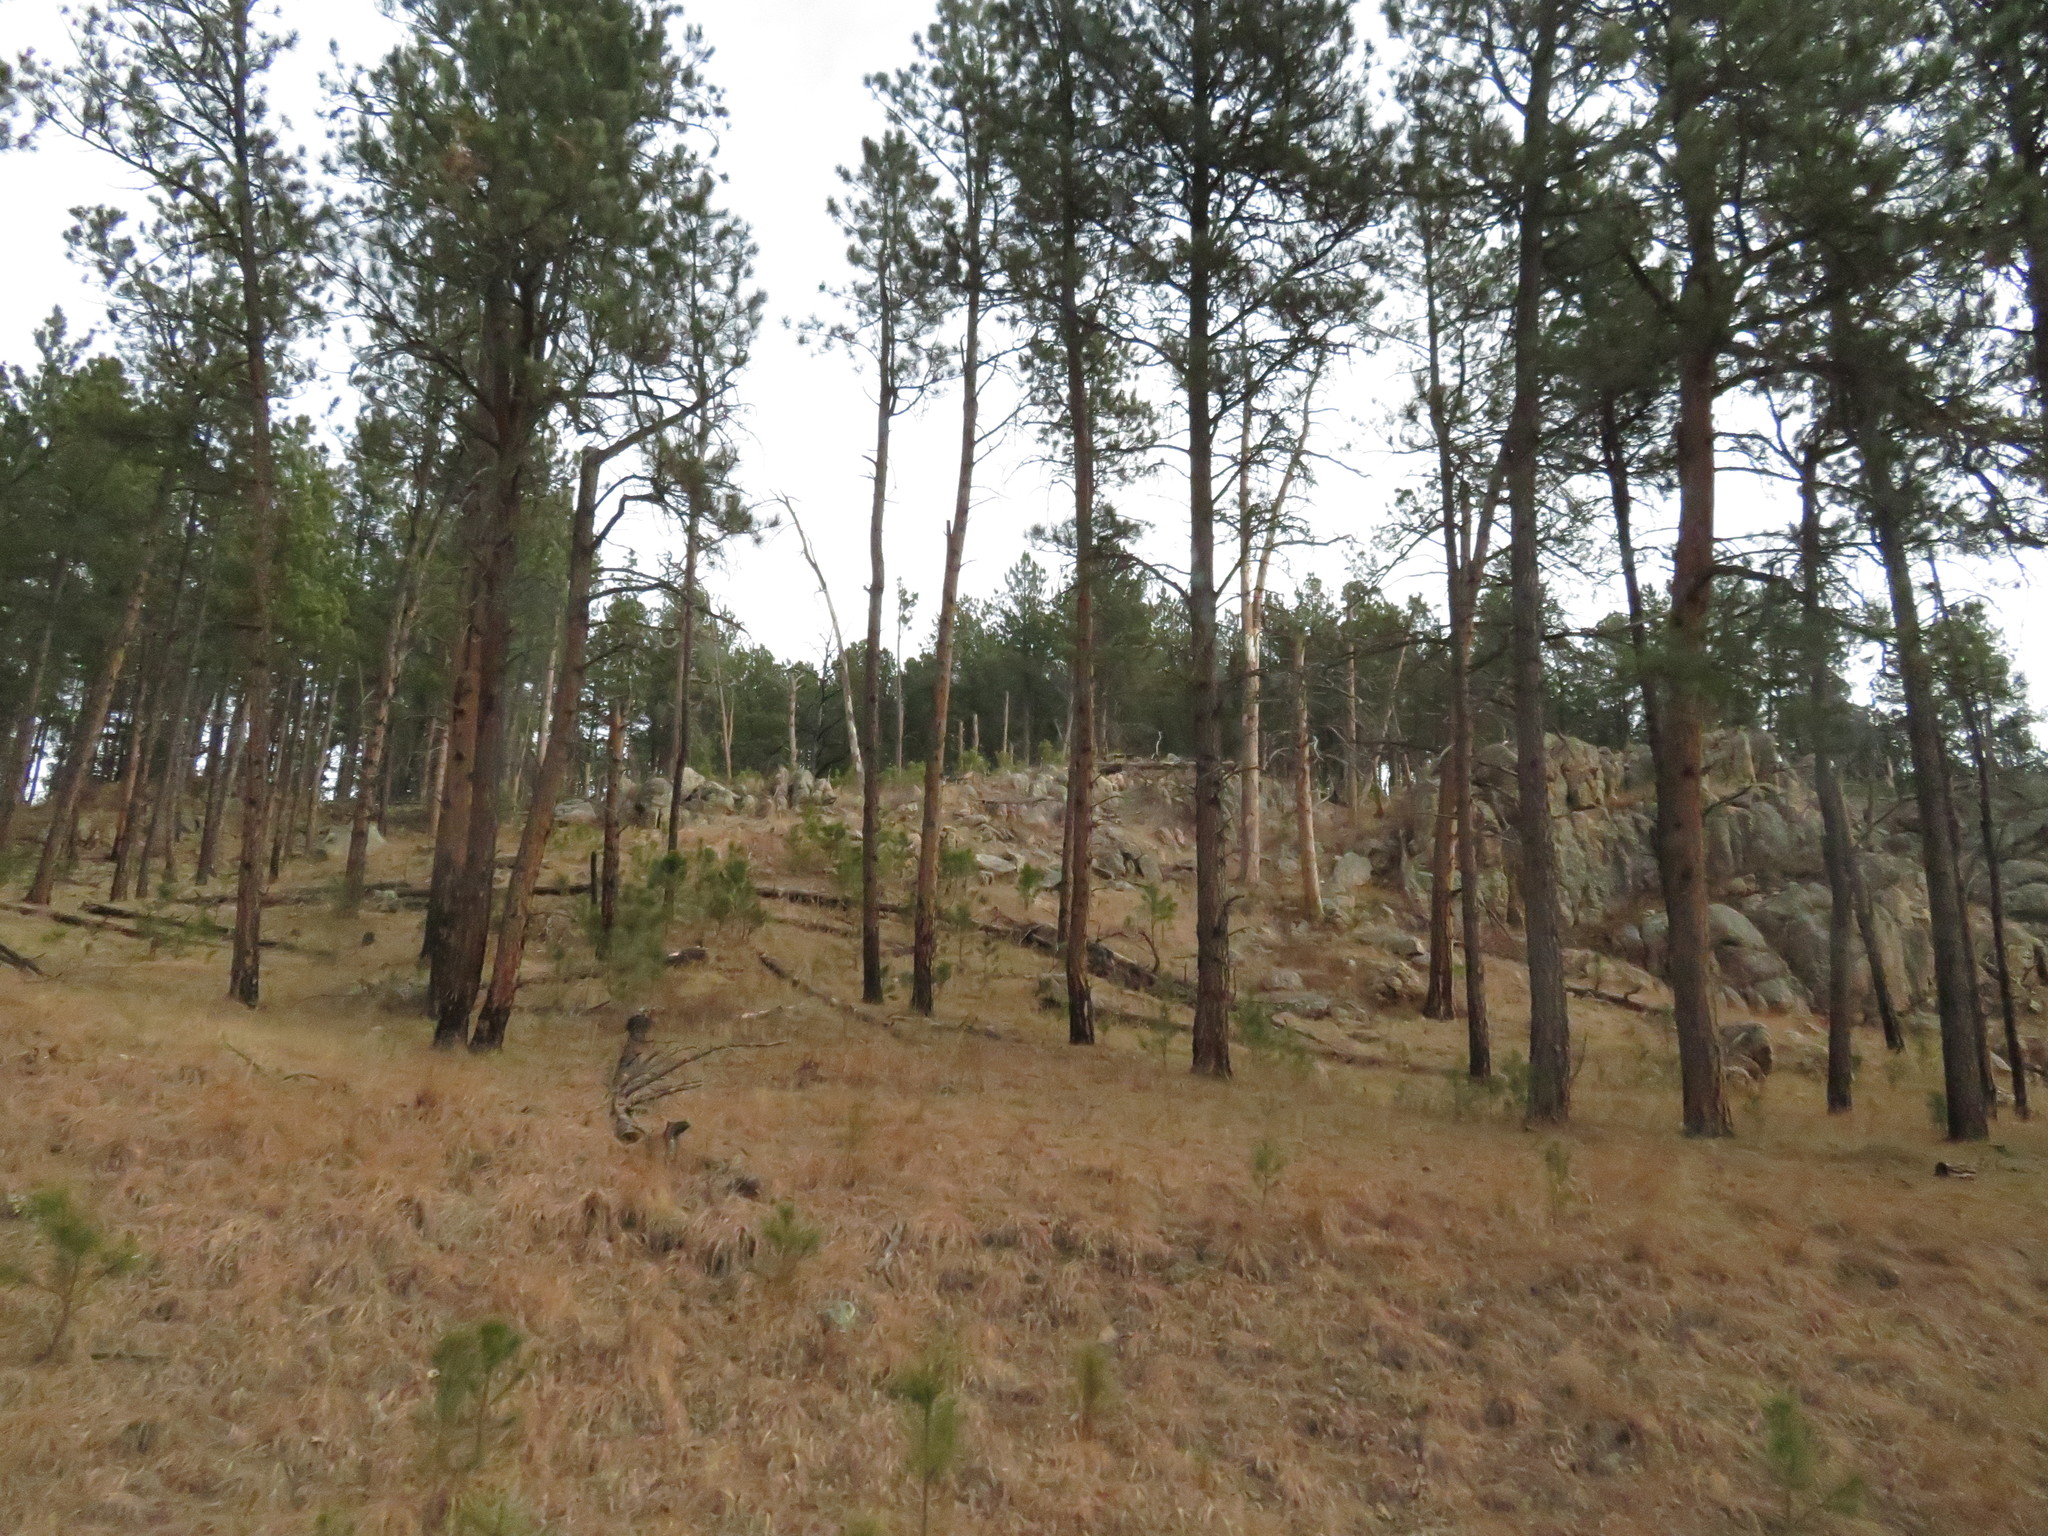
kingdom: Plantae
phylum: Tracheophyta
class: Pinopsida
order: Pinales
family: Pinaceae
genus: Pinus
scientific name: Pinus ponderosa
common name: Western yellow-pine
